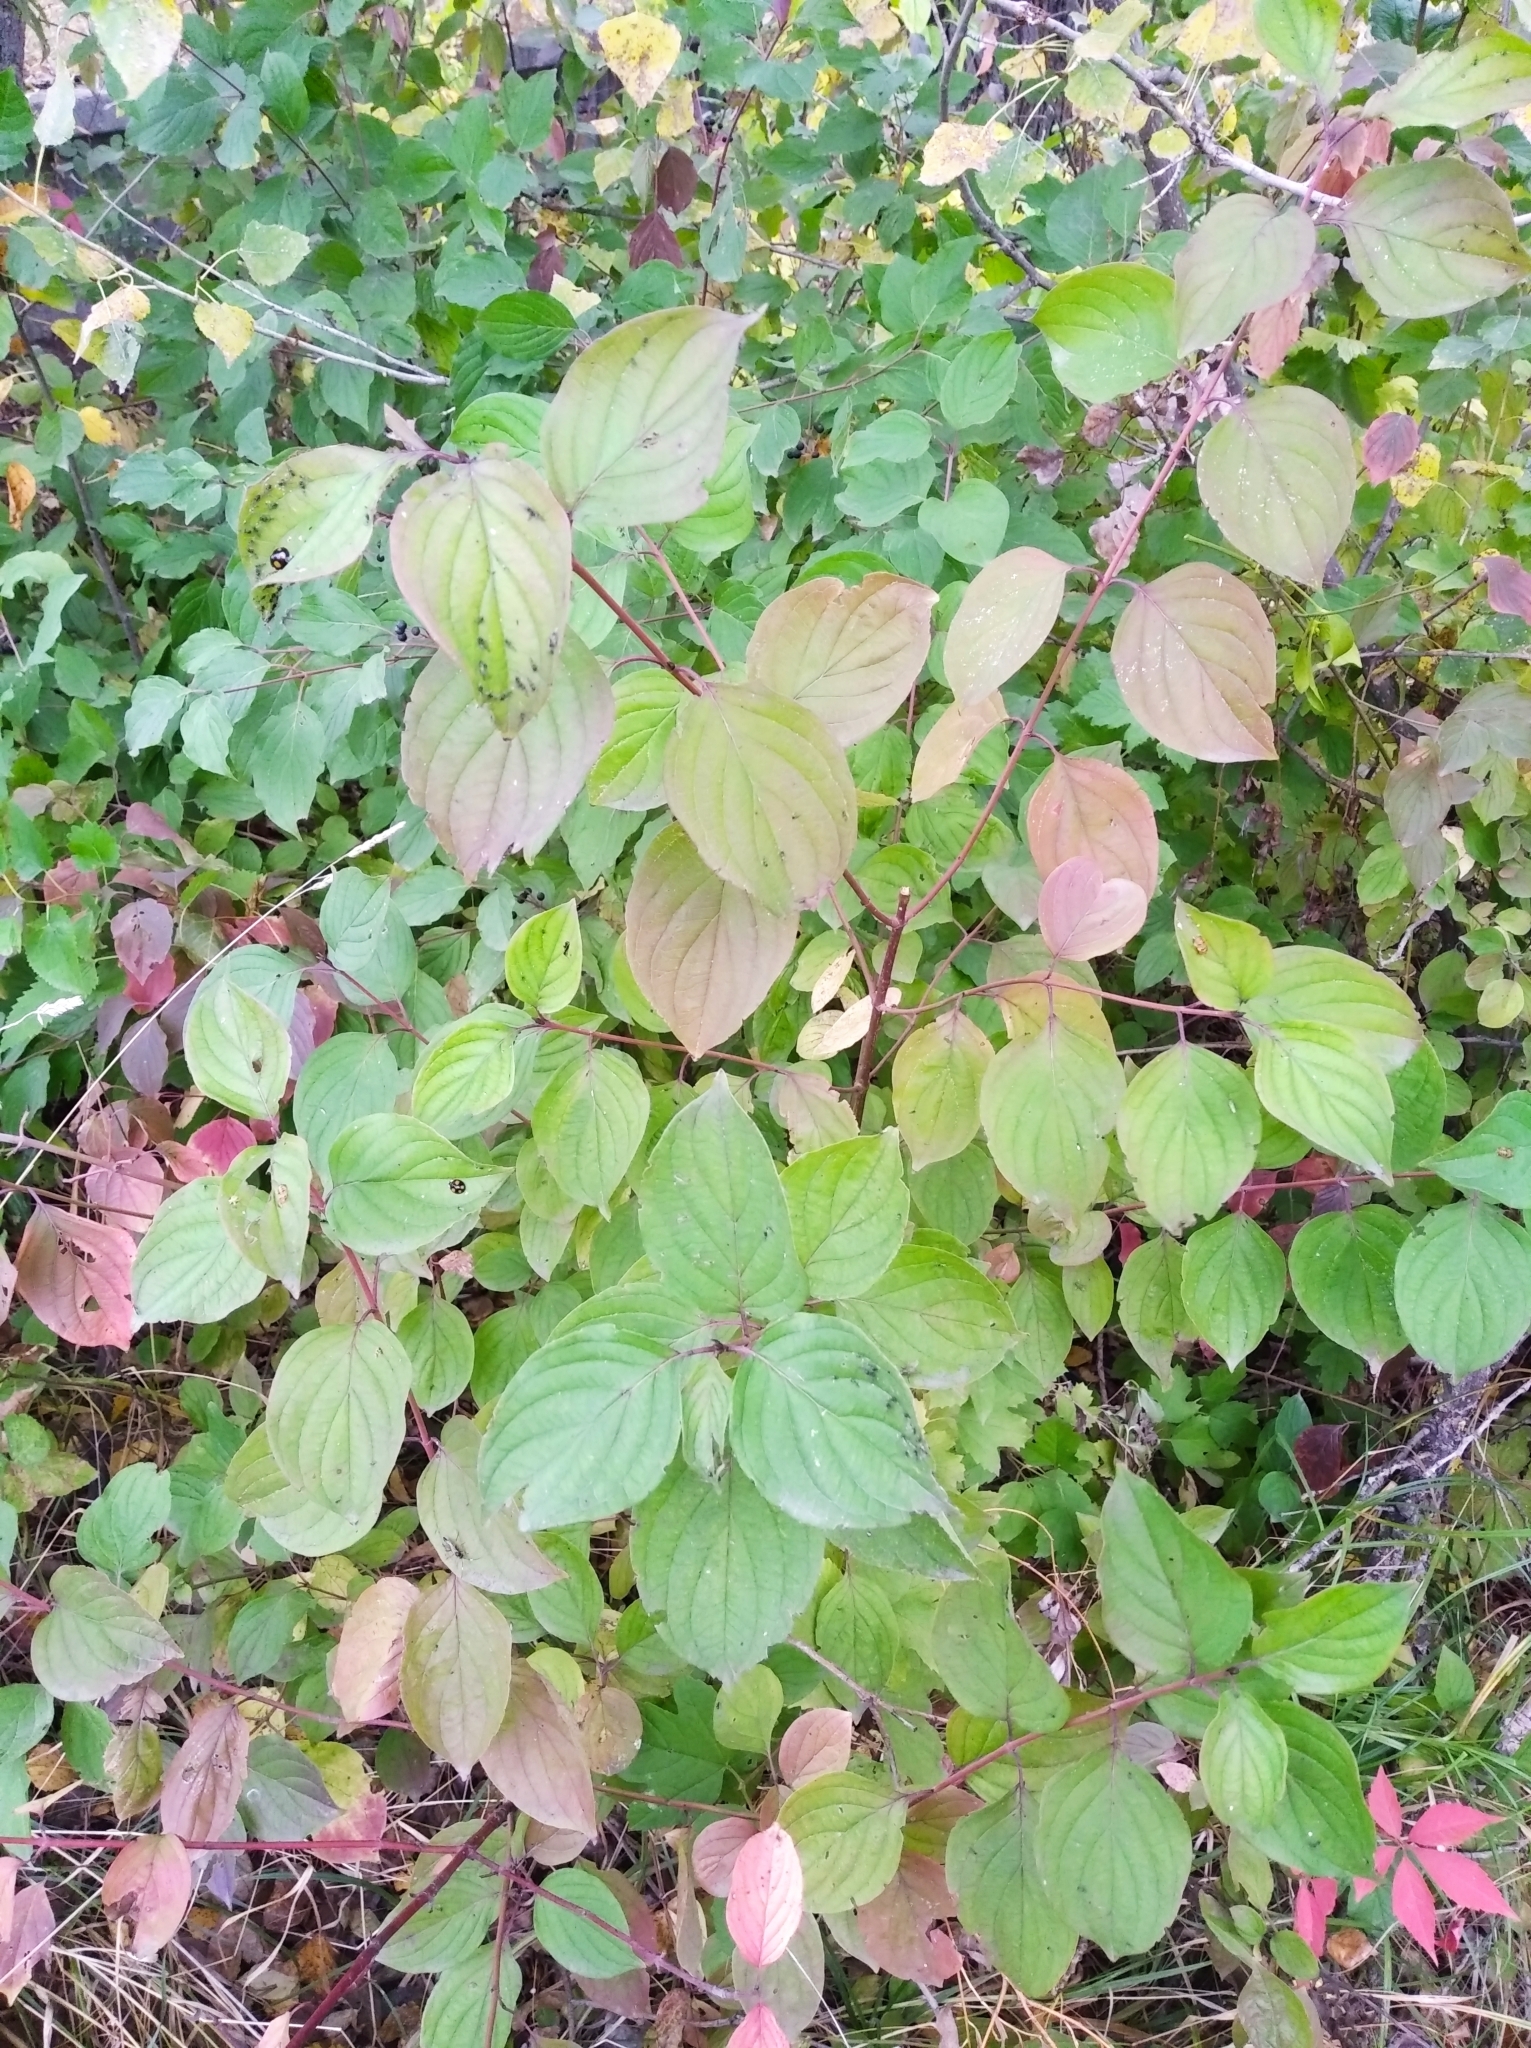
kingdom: Plantae
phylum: Tracheophyta
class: Magnoliopsida
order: Cornales
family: Cornaceae
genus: Cornus
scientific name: Cornus sanguinea
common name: Dogwood
